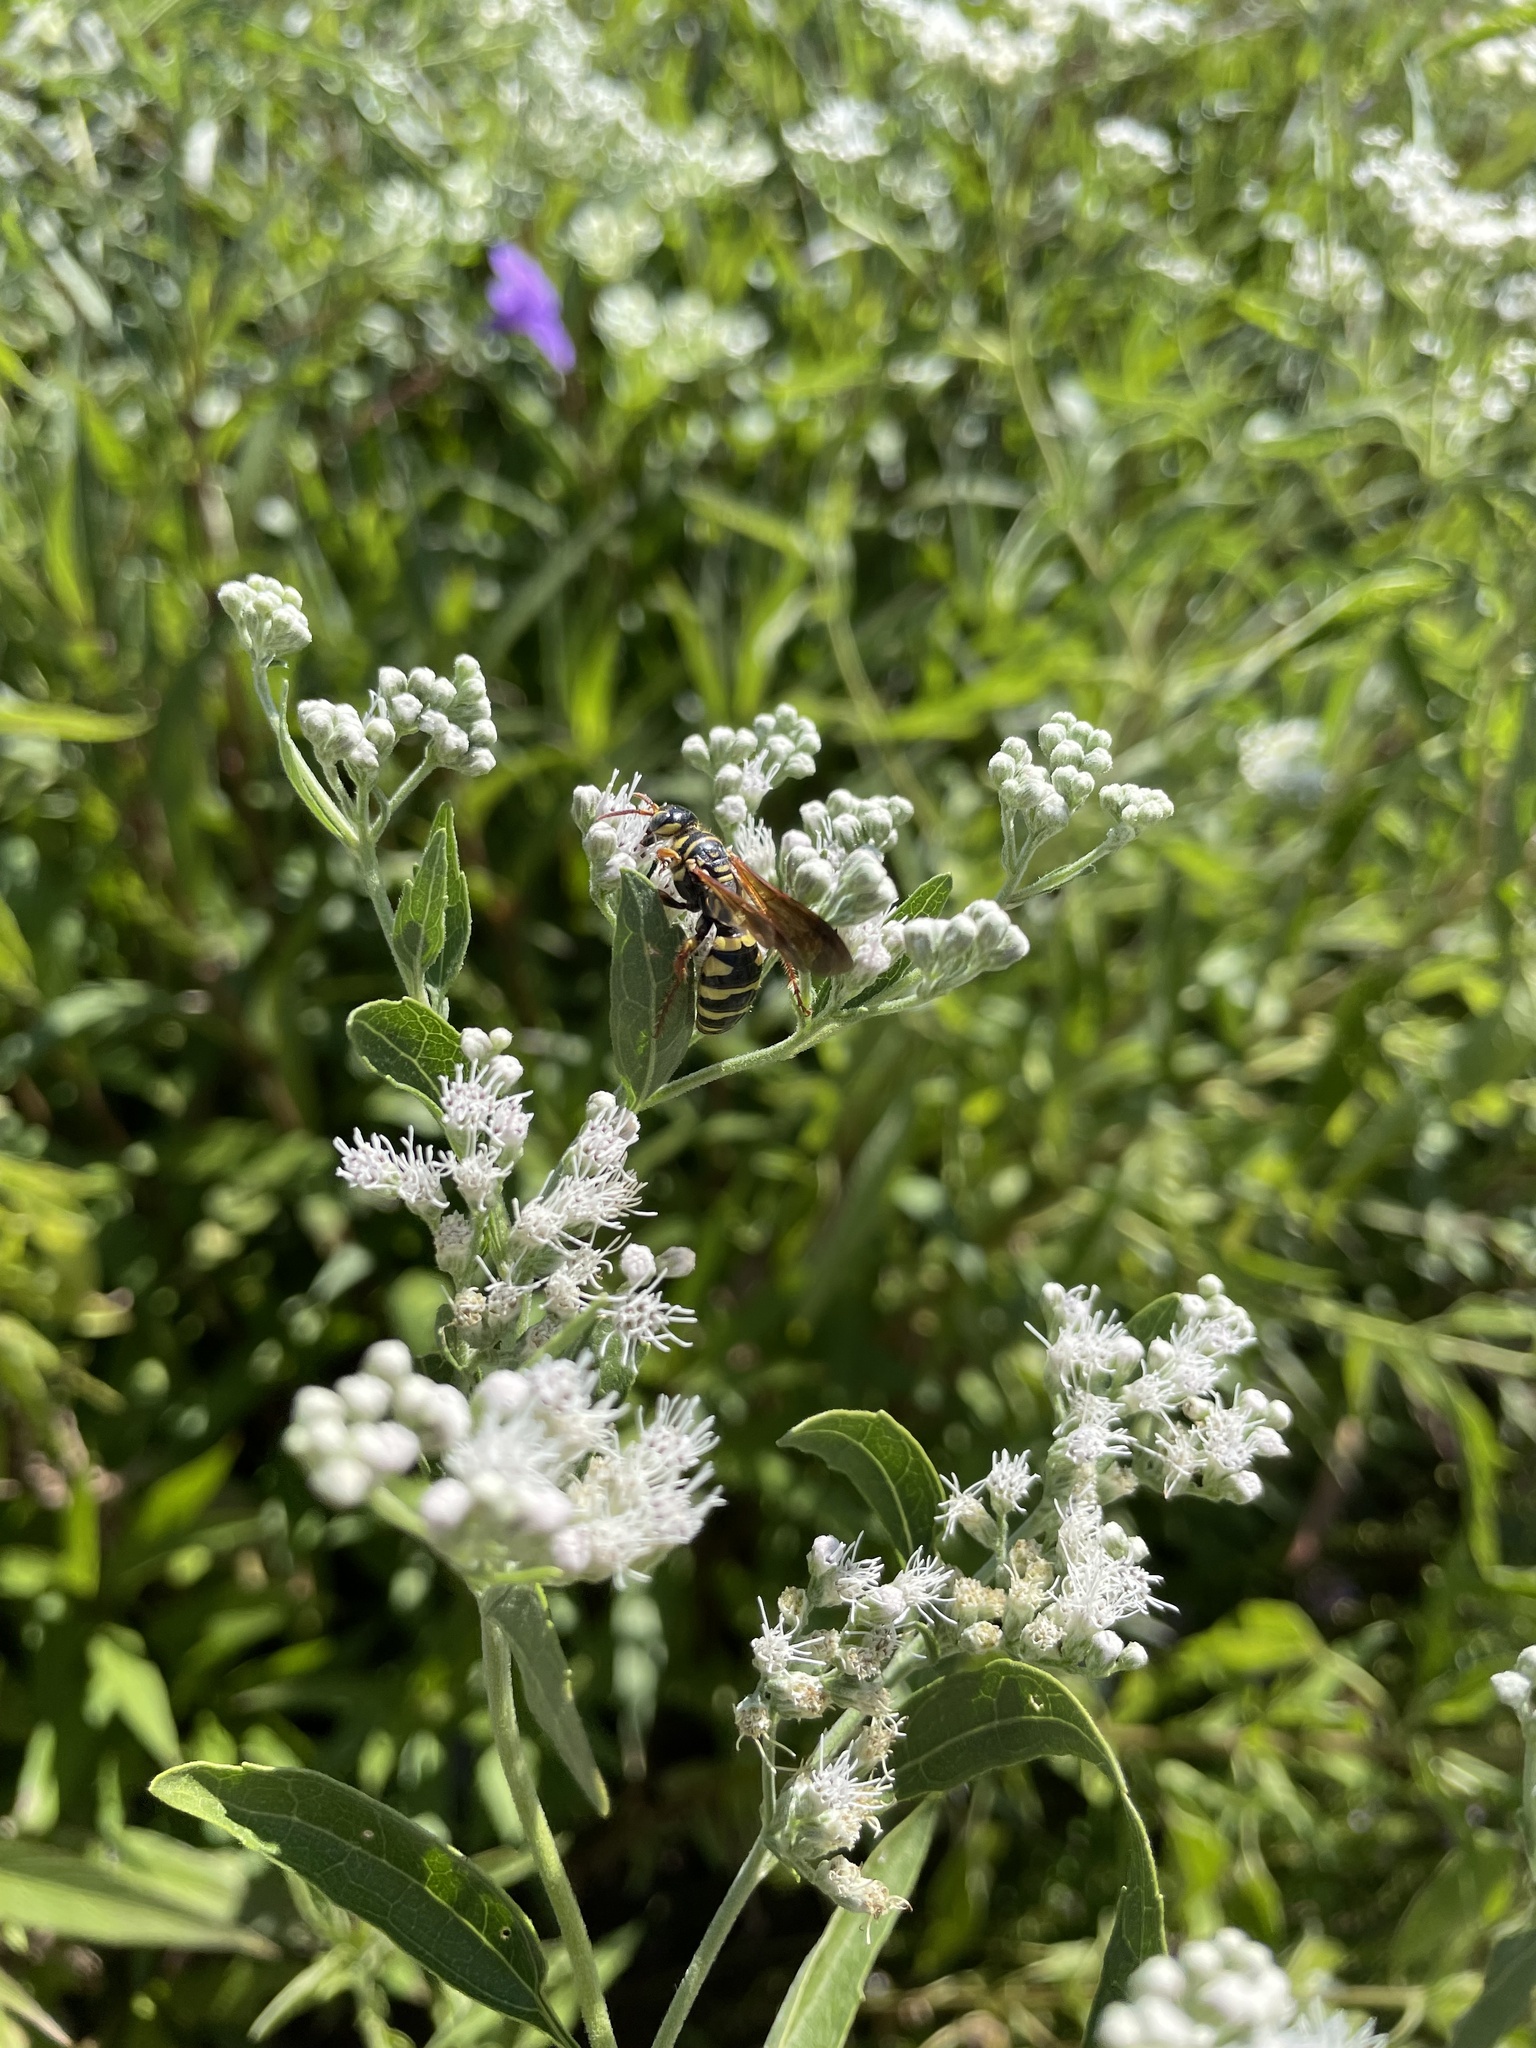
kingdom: Animalia
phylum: Arthropoda
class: Insecta
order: Hymenoptera
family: Tiphiidae
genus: Myzinum
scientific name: Myzinum quinquecinctum
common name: Five-banded thynnid wasp
